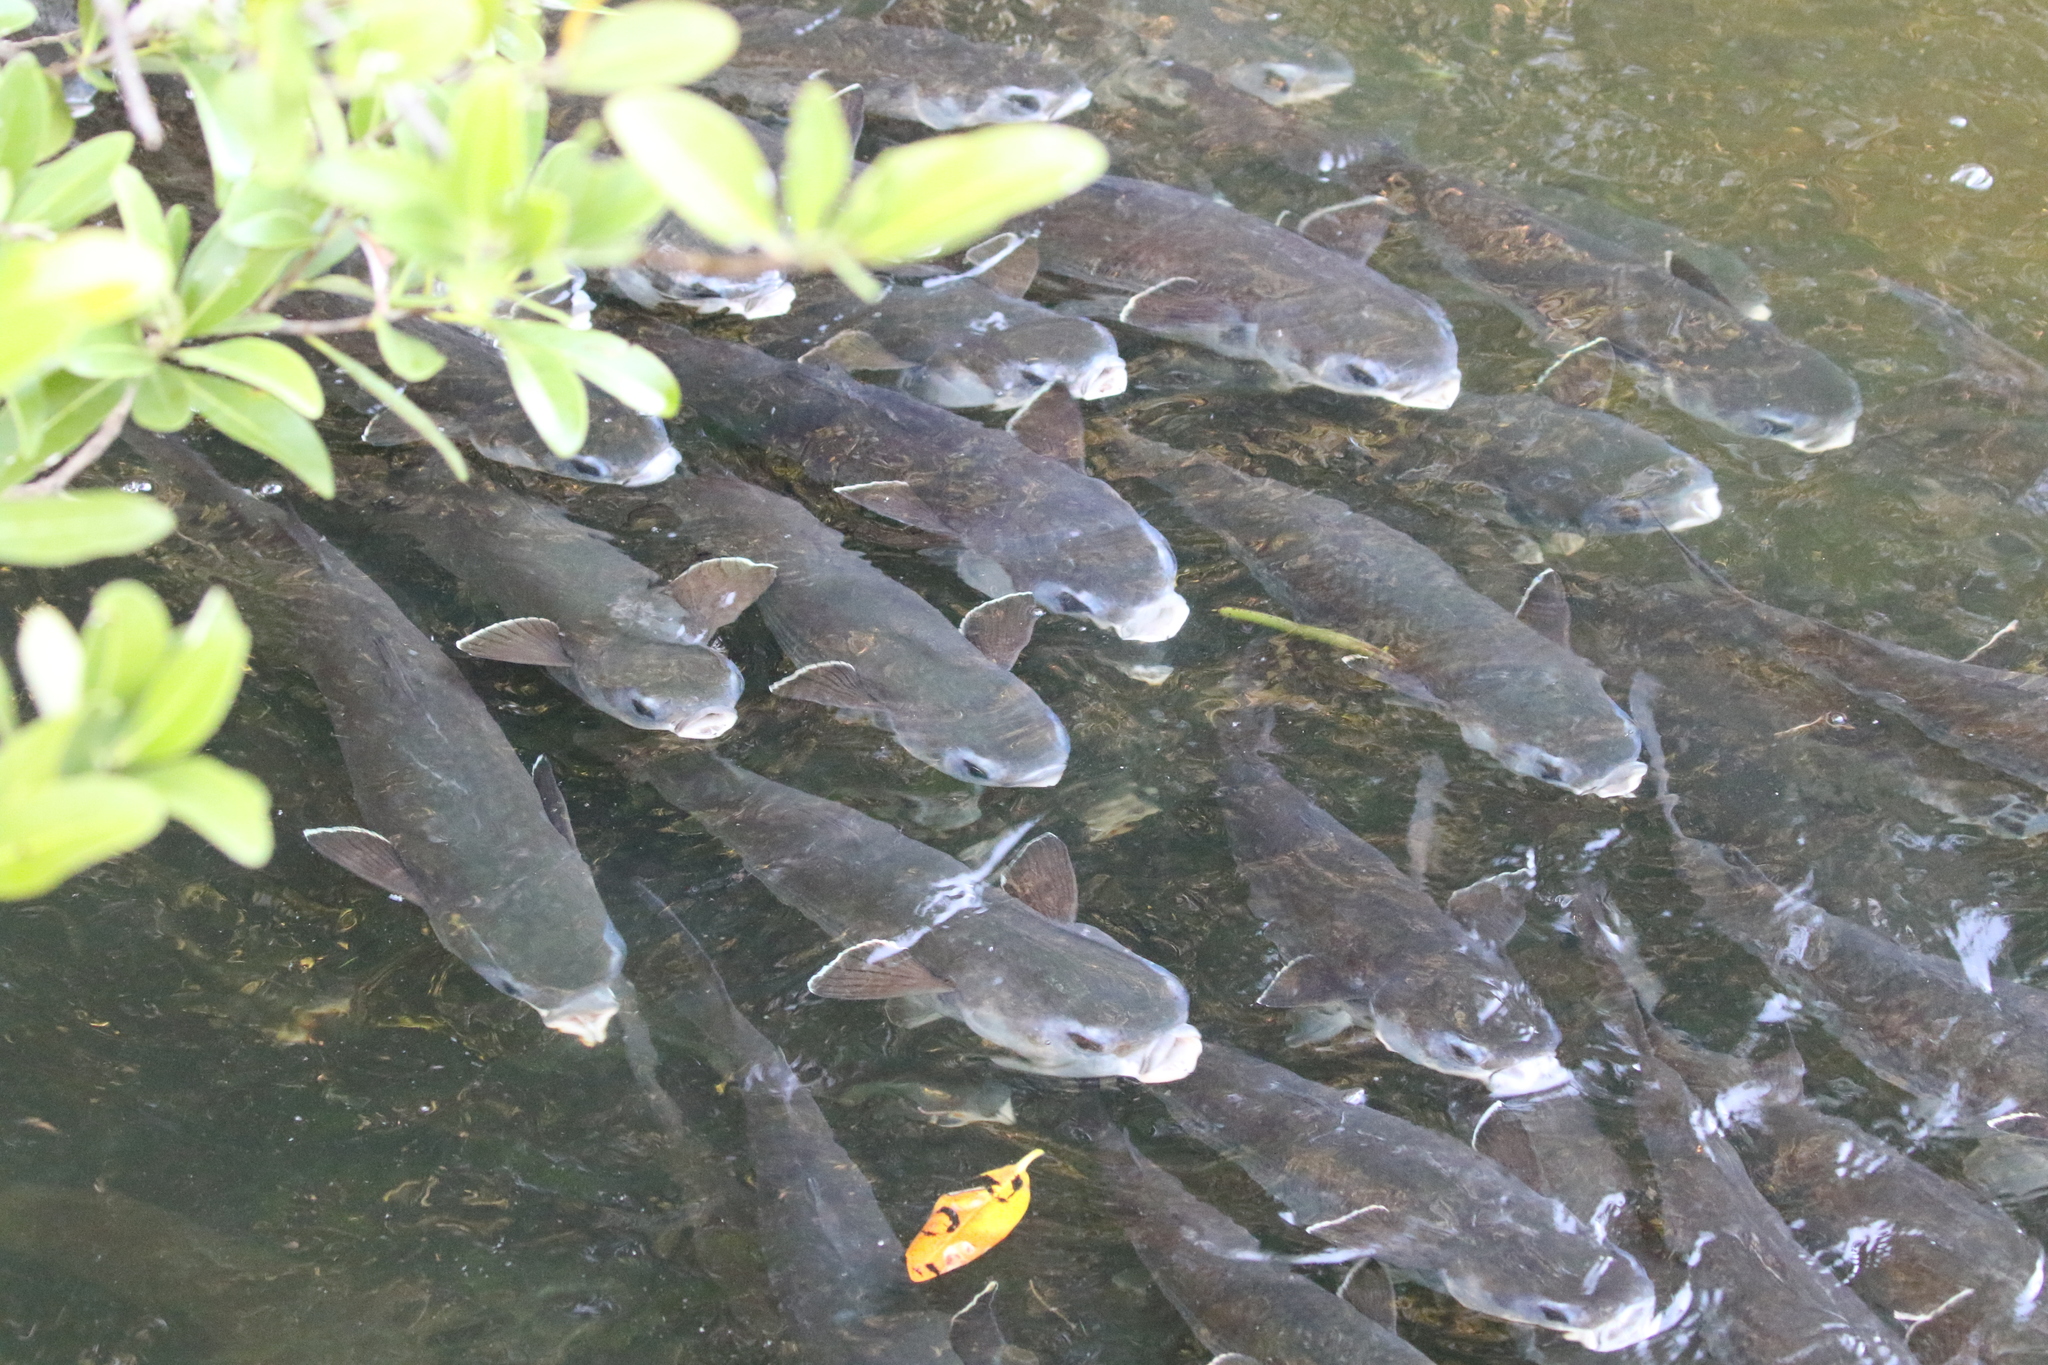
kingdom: Animalia
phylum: Chordata
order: Mugiliformes
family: Mugilidae
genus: Mugil
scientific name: Mugil cephalus
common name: Grey mullet
